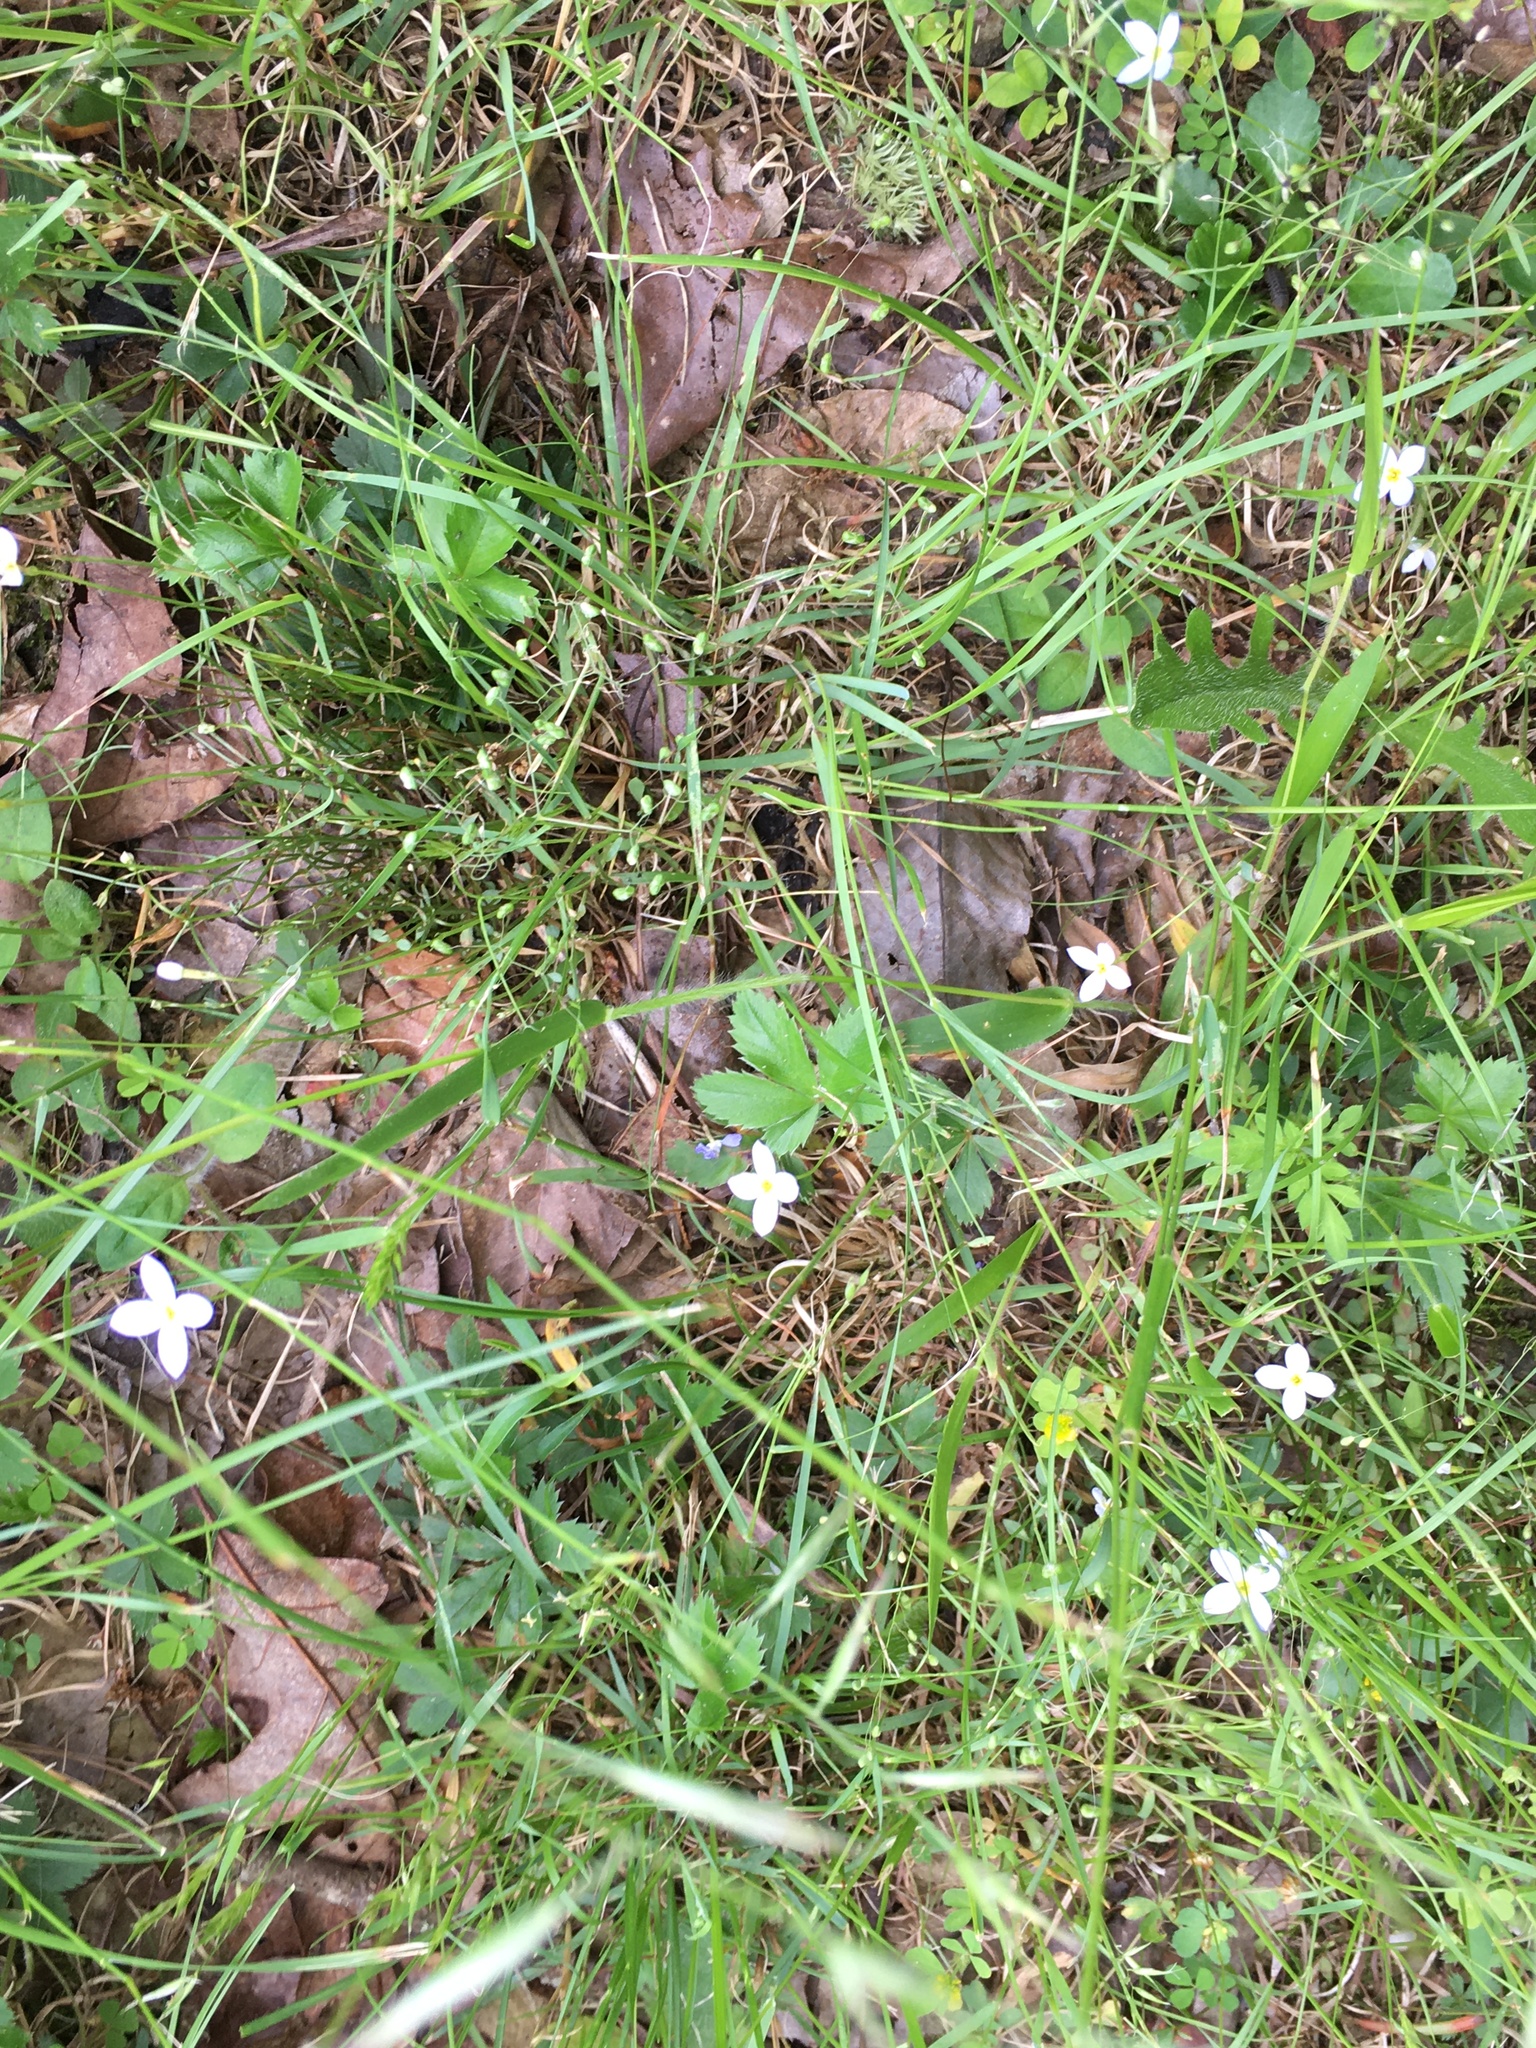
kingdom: Plantae
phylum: Tracheophyta
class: Magnoliopsida
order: Gentianales
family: Rubiaceae
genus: Houstonia
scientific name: Houstonia caerulea
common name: Bluets
